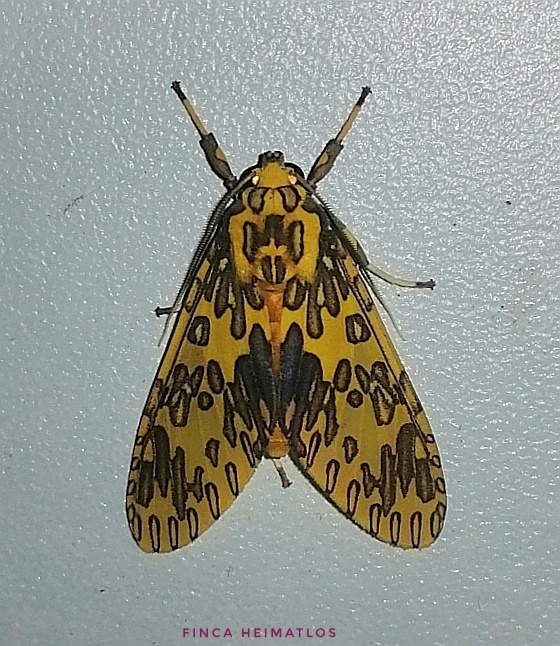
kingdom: Animalia
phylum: Arthropoda
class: Insecta
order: Lepidoptera
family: Erebidae
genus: Amaxia
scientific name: Amaxia pandama
